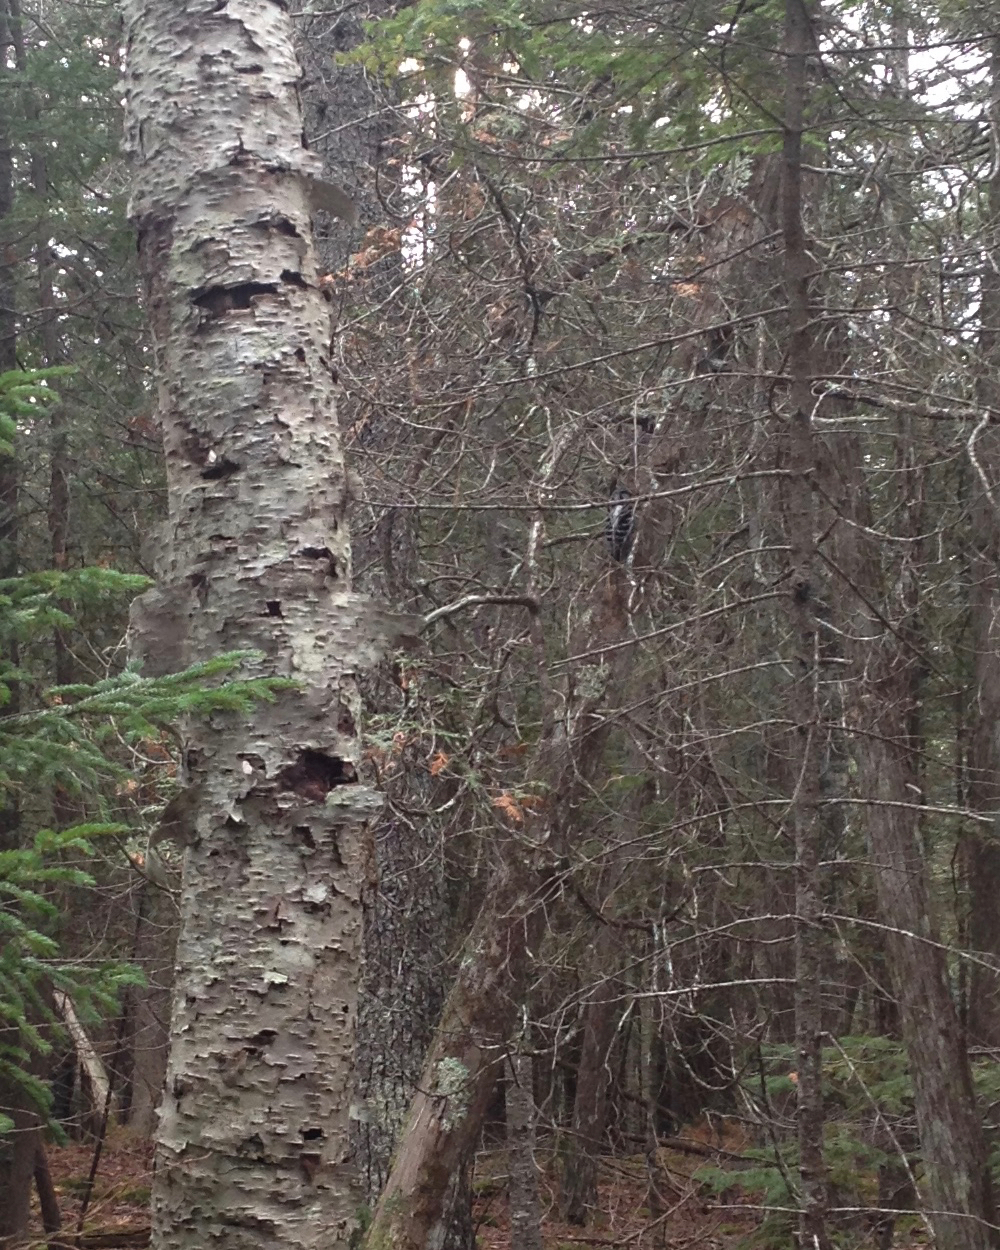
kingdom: Animalia
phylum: Chordata
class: Aves
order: Piciformes
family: Picidae
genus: Dryobates
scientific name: Dryobates
